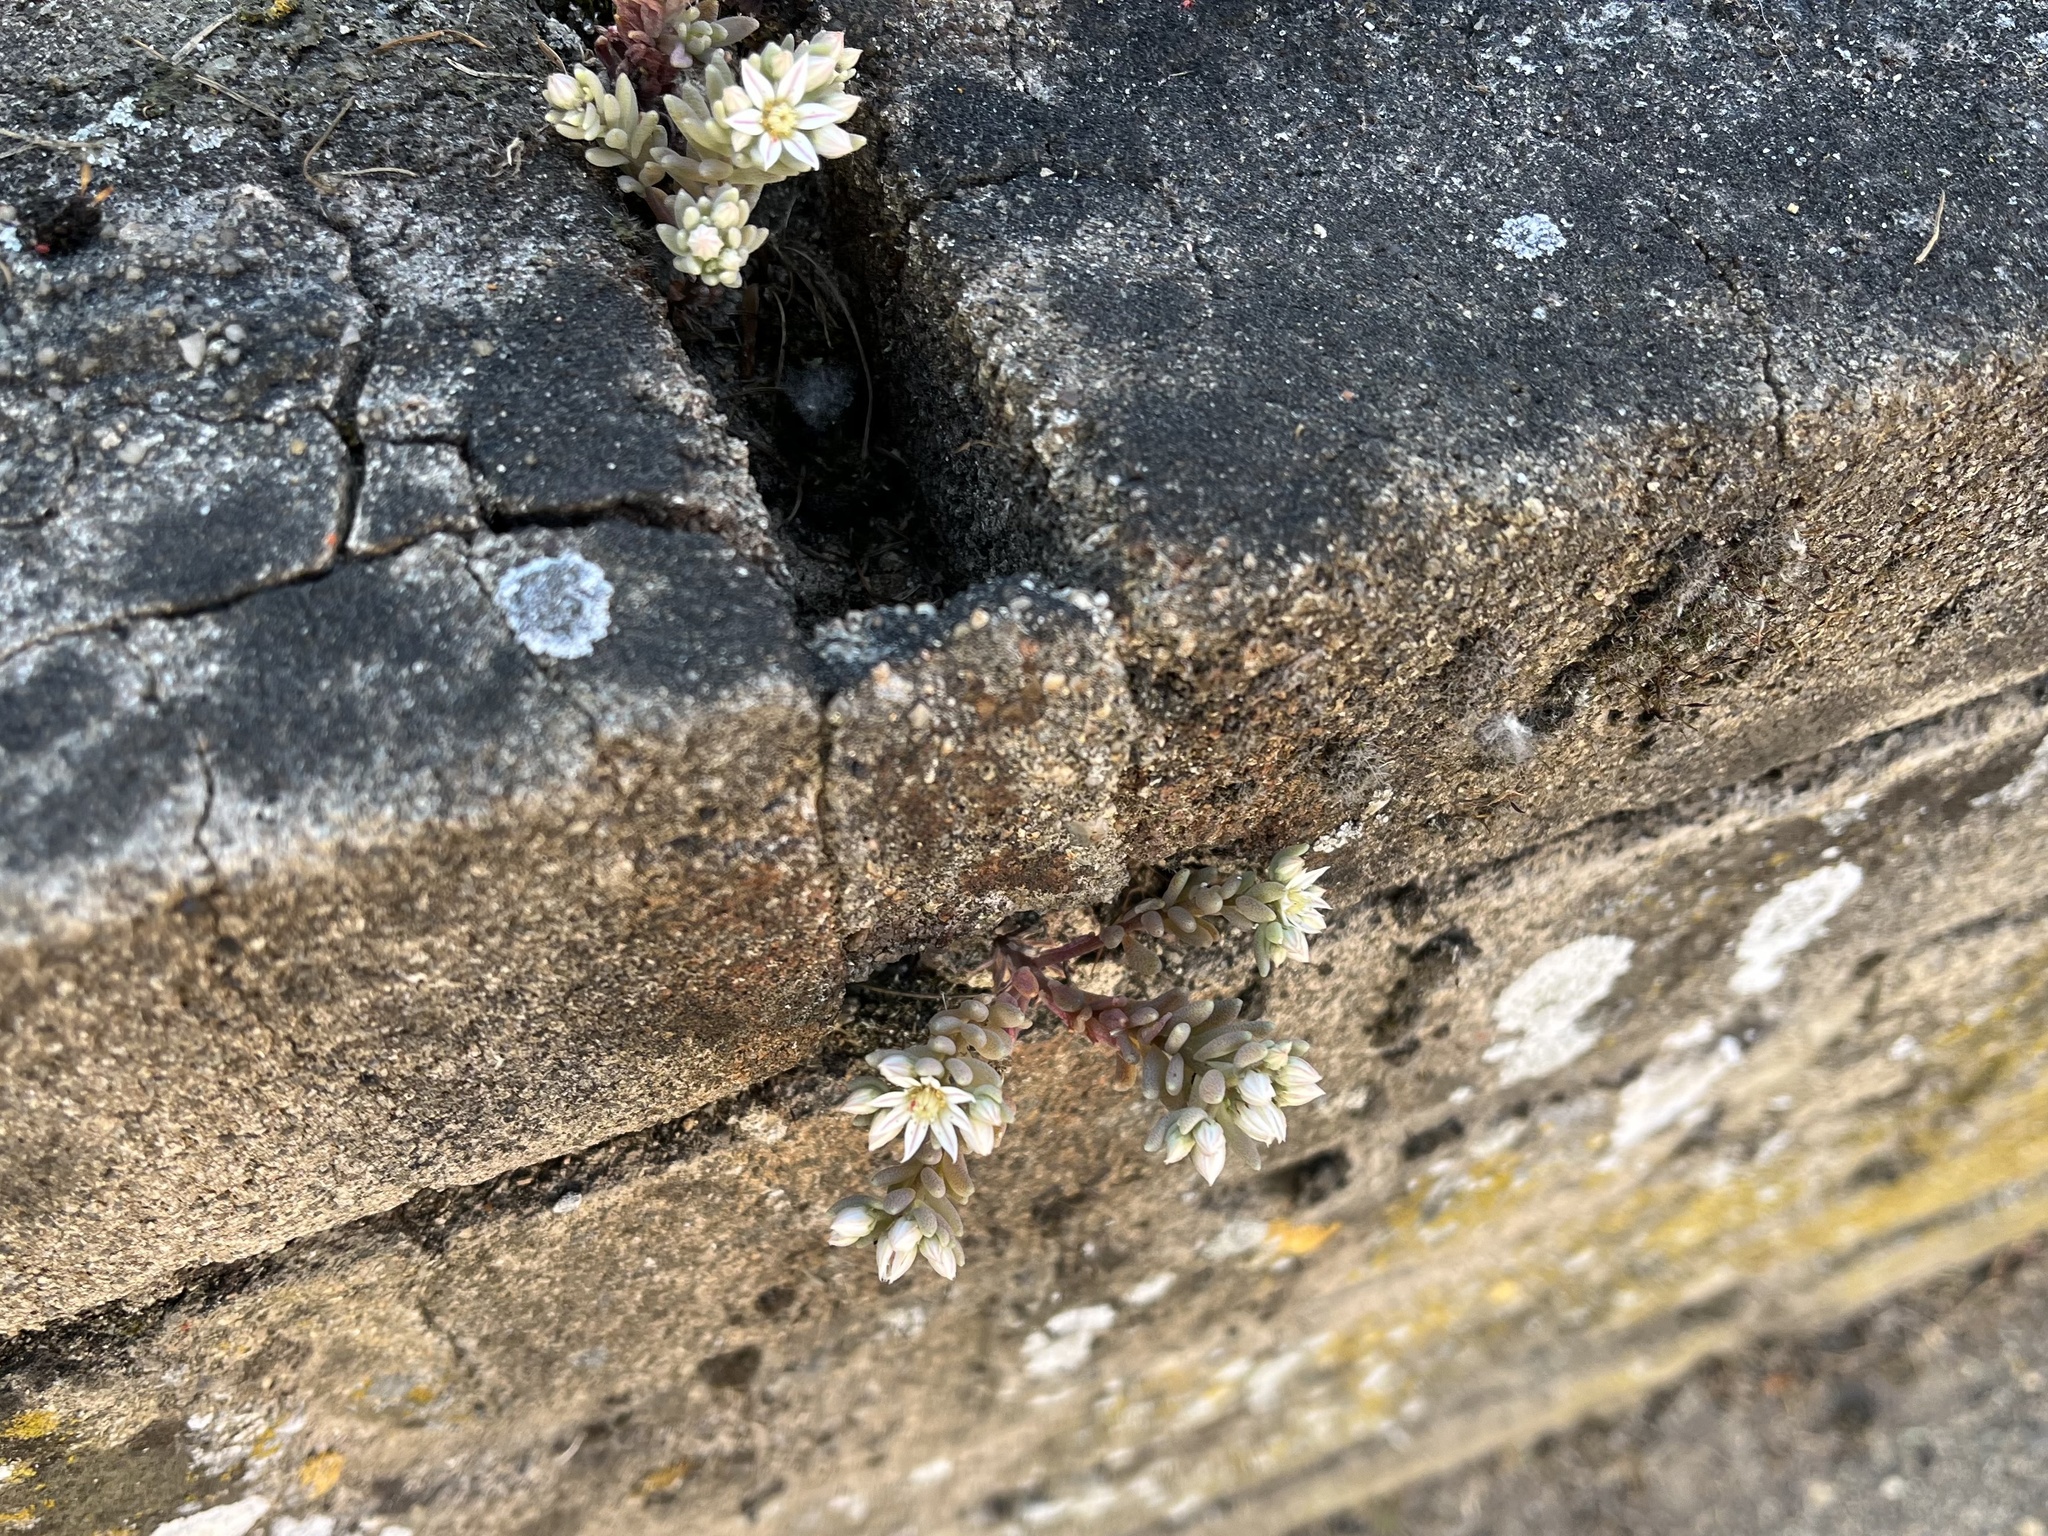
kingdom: Plantae
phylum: Tracheophyta
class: Magnoliopsida
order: Saxifragales
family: Crassulaceae
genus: Sedum
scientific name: Sedum hispanicum
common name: Spanish stonecrop
